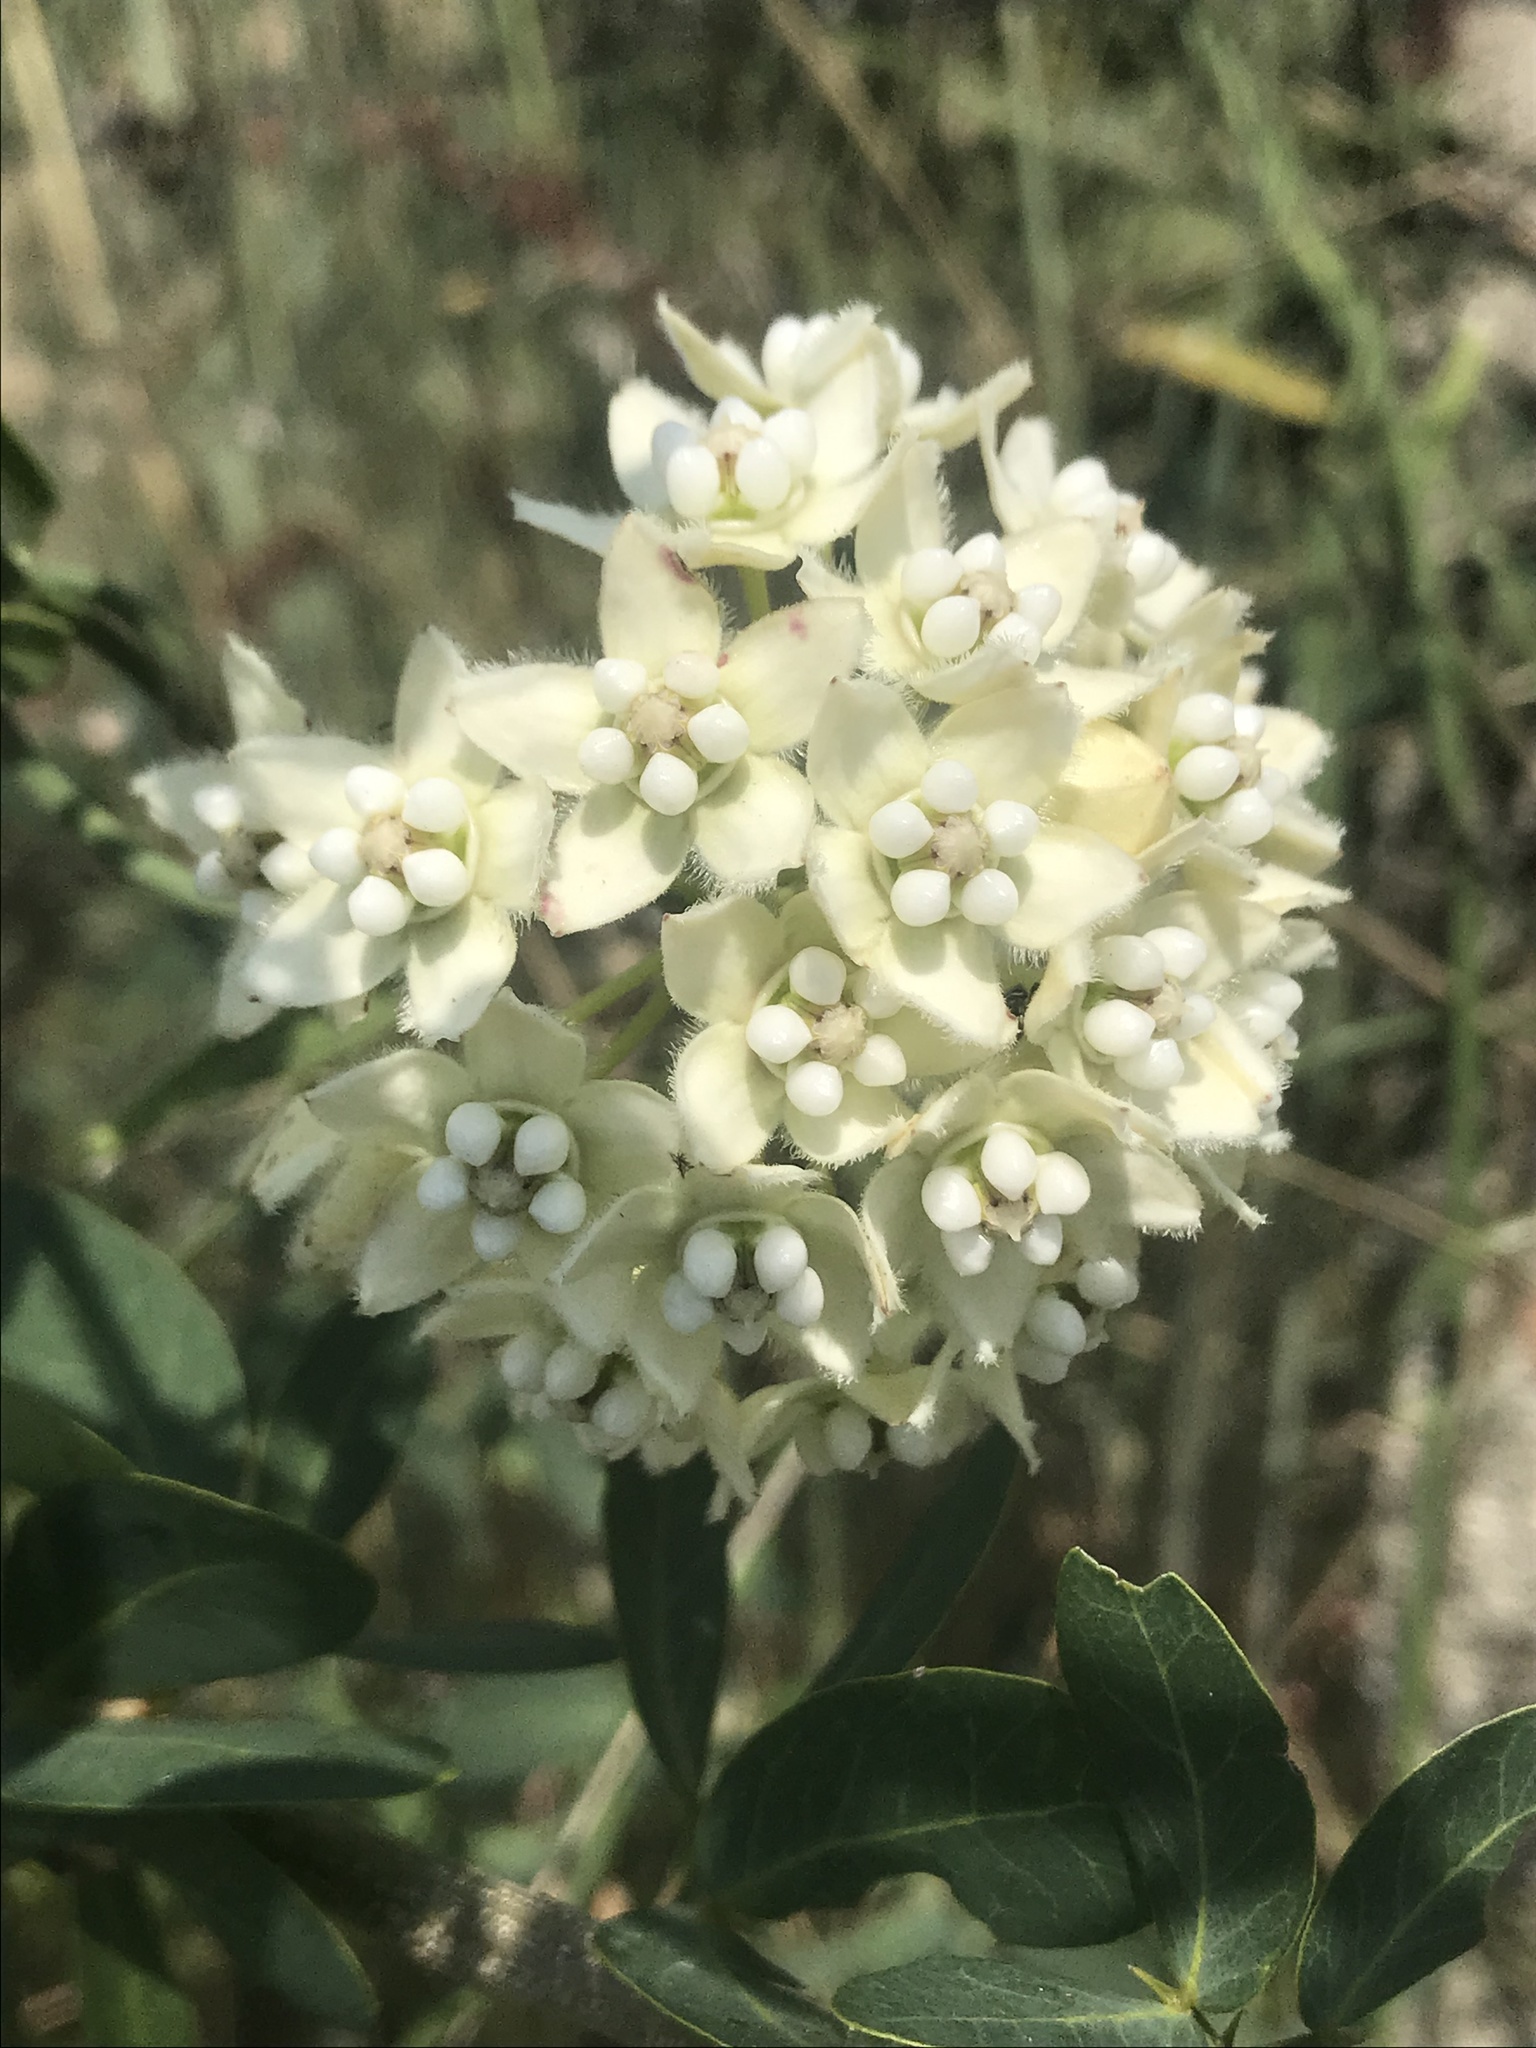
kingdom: Plantae
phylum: Tracheophyta
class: Magnoliopsida
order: Gentianales
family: Apocynaceae
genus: Funastrum
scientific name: Funastrum clausum
